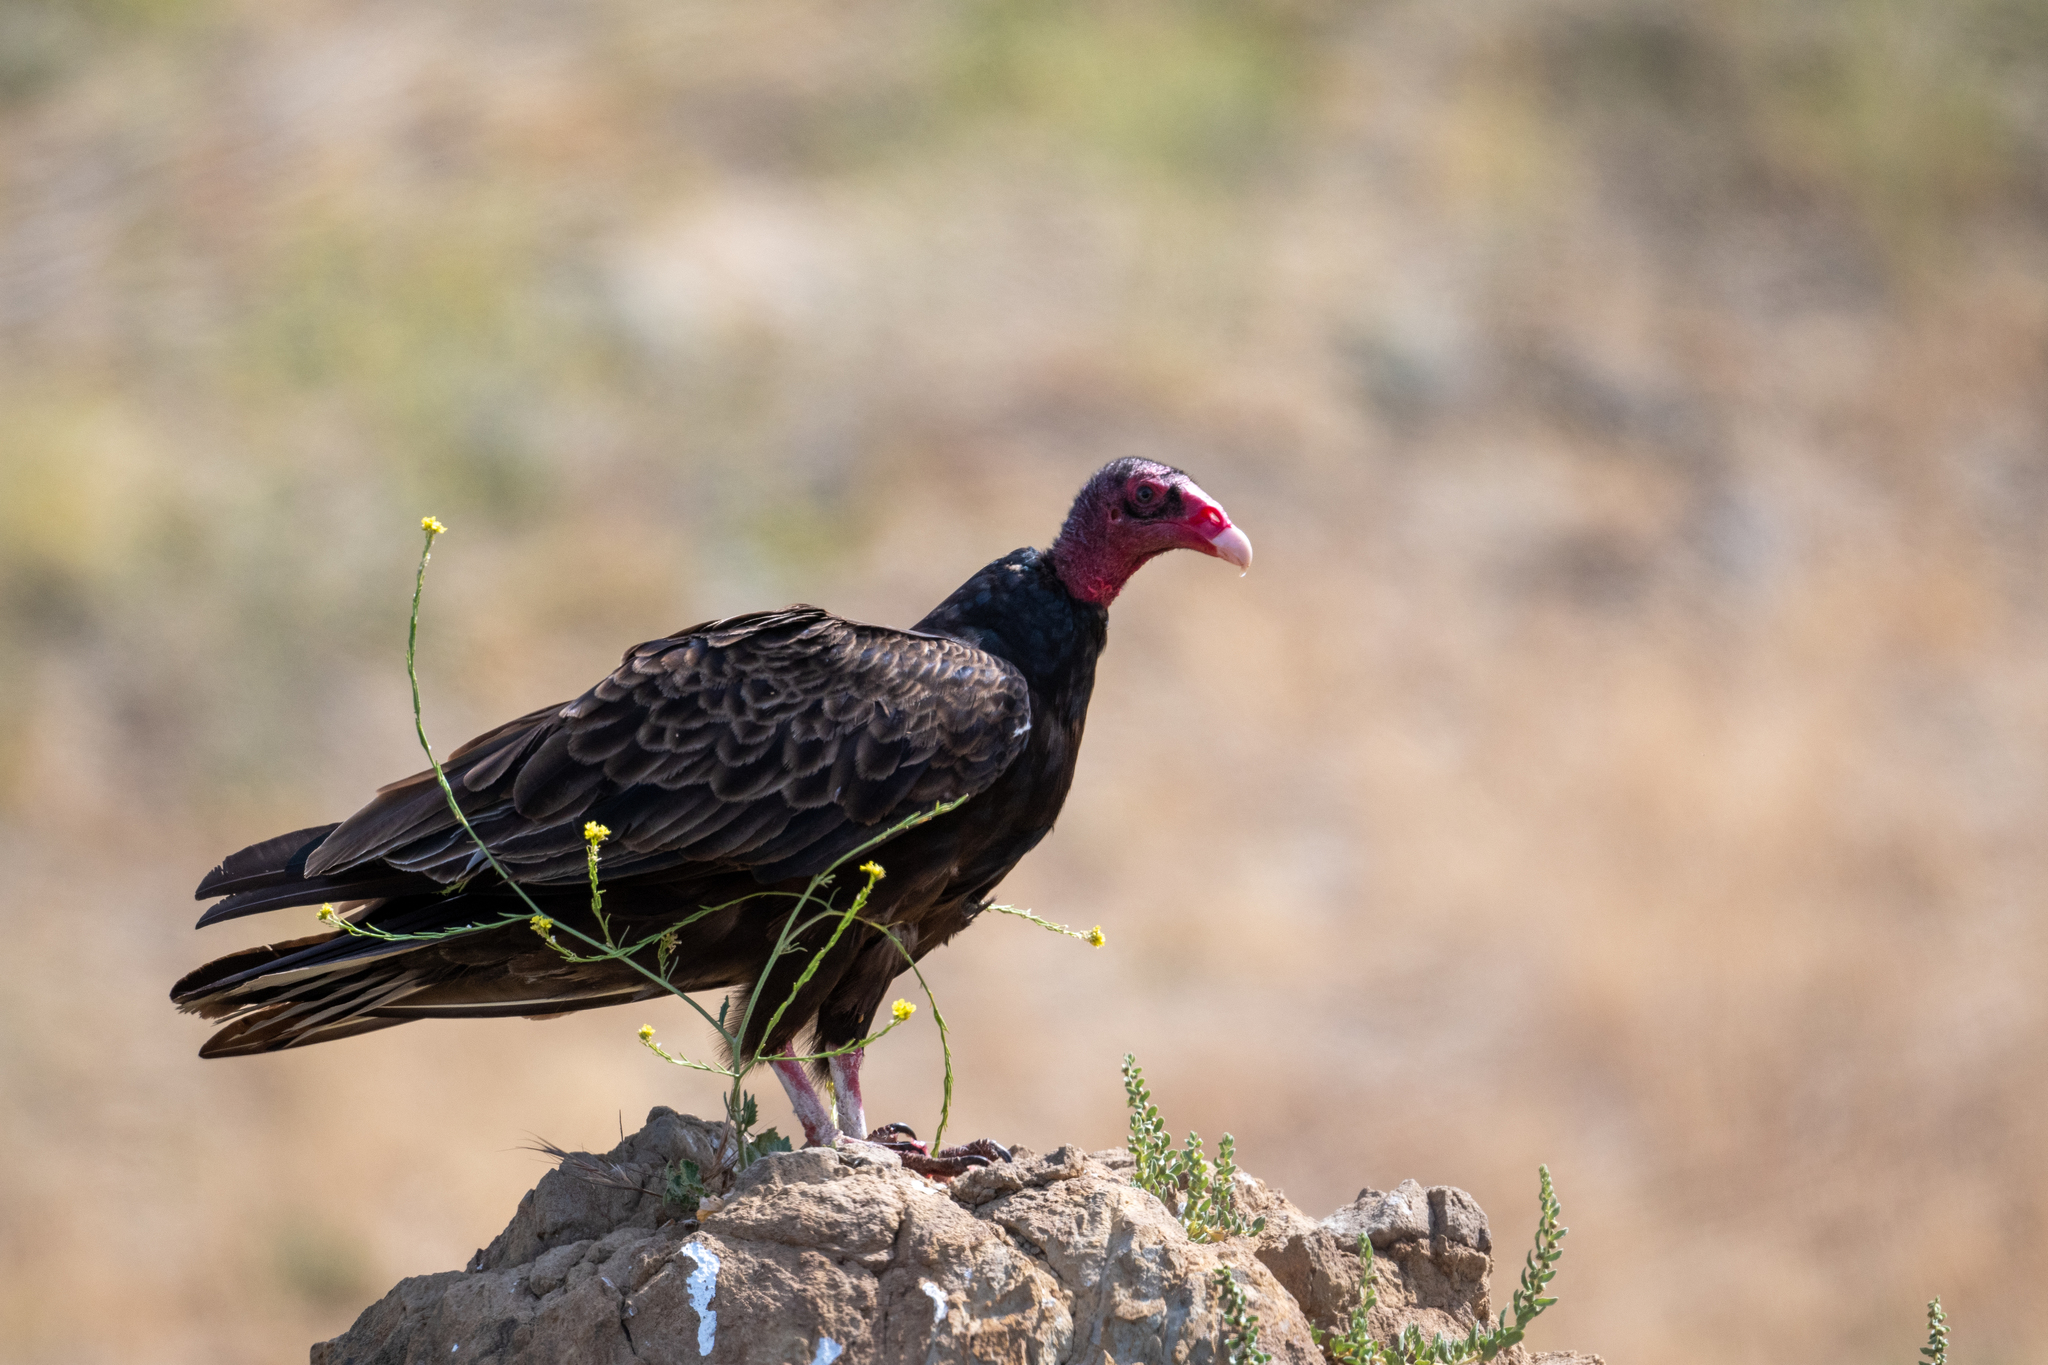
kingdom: Animalia
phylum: Chordata
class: Aves
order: Accipitriformes
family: Cathartidae
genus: Cathartes
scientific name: Cathartes aura
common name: Turkey vulture
